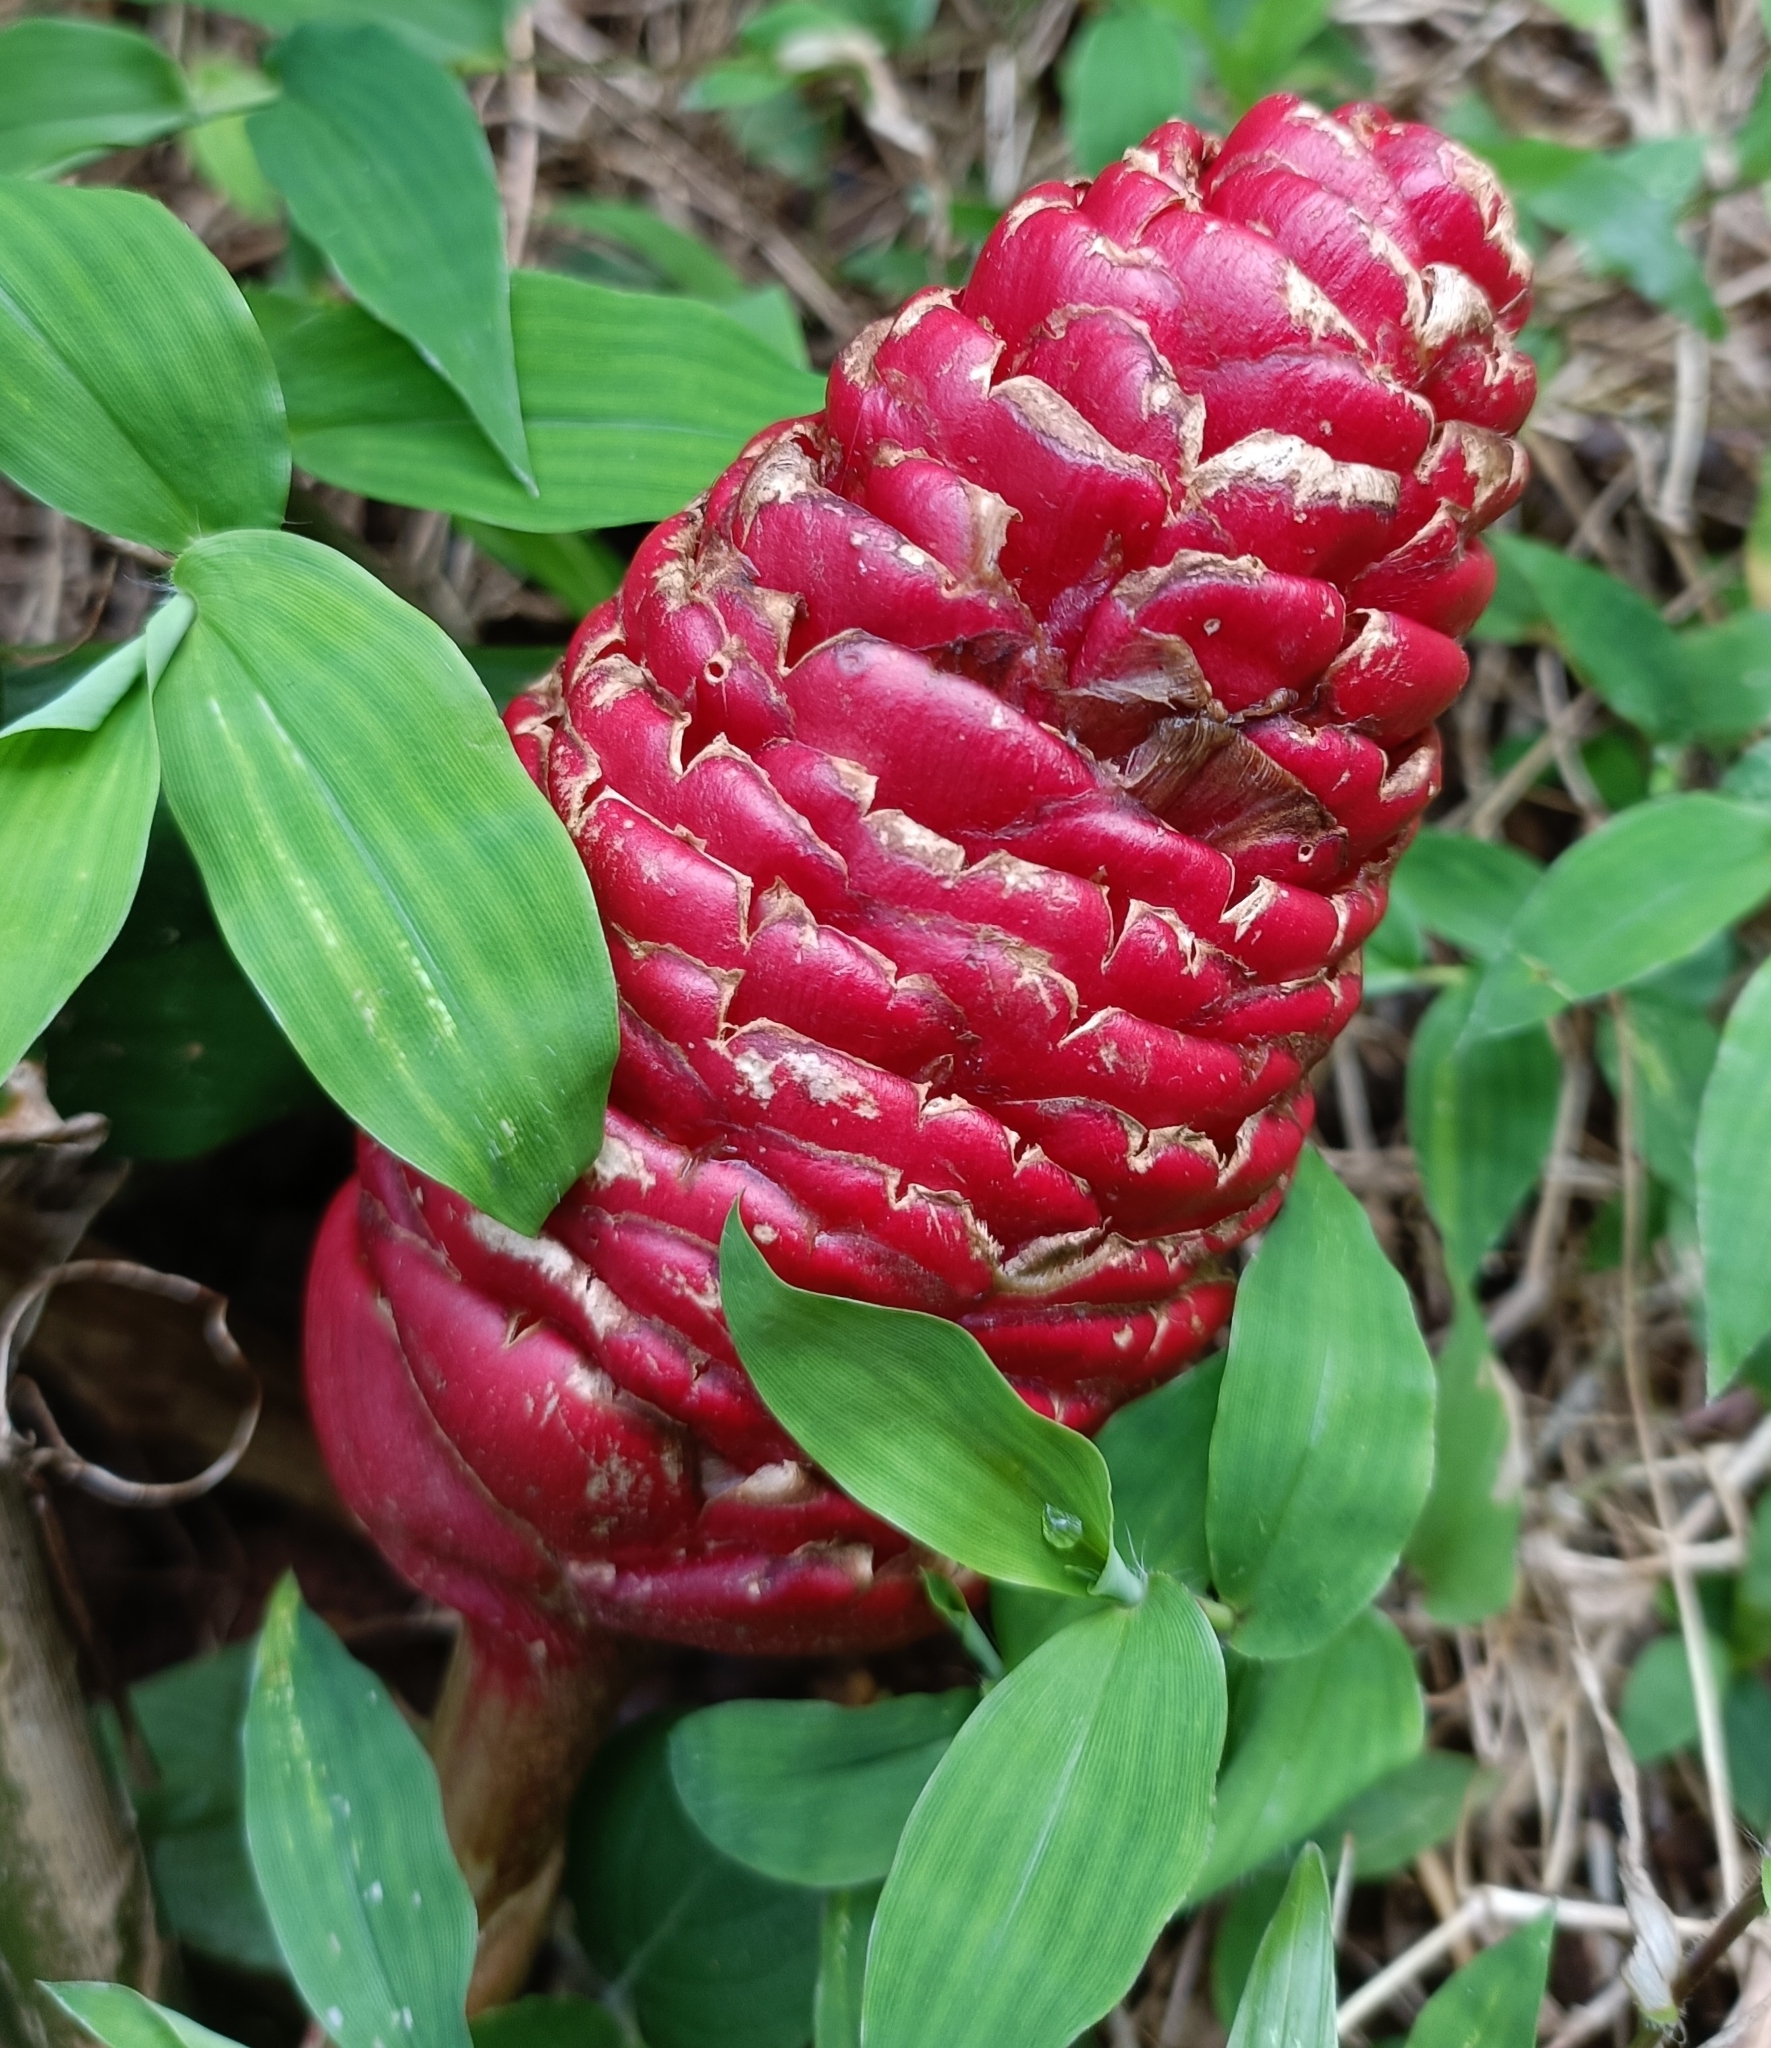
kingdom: Plantae
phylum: Tracheophyta
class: Liliopsida
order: Zingiberales
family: Zingiberaceae
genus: Zingiber
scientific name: Zingiber zerumbet
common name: Bitter ginger
